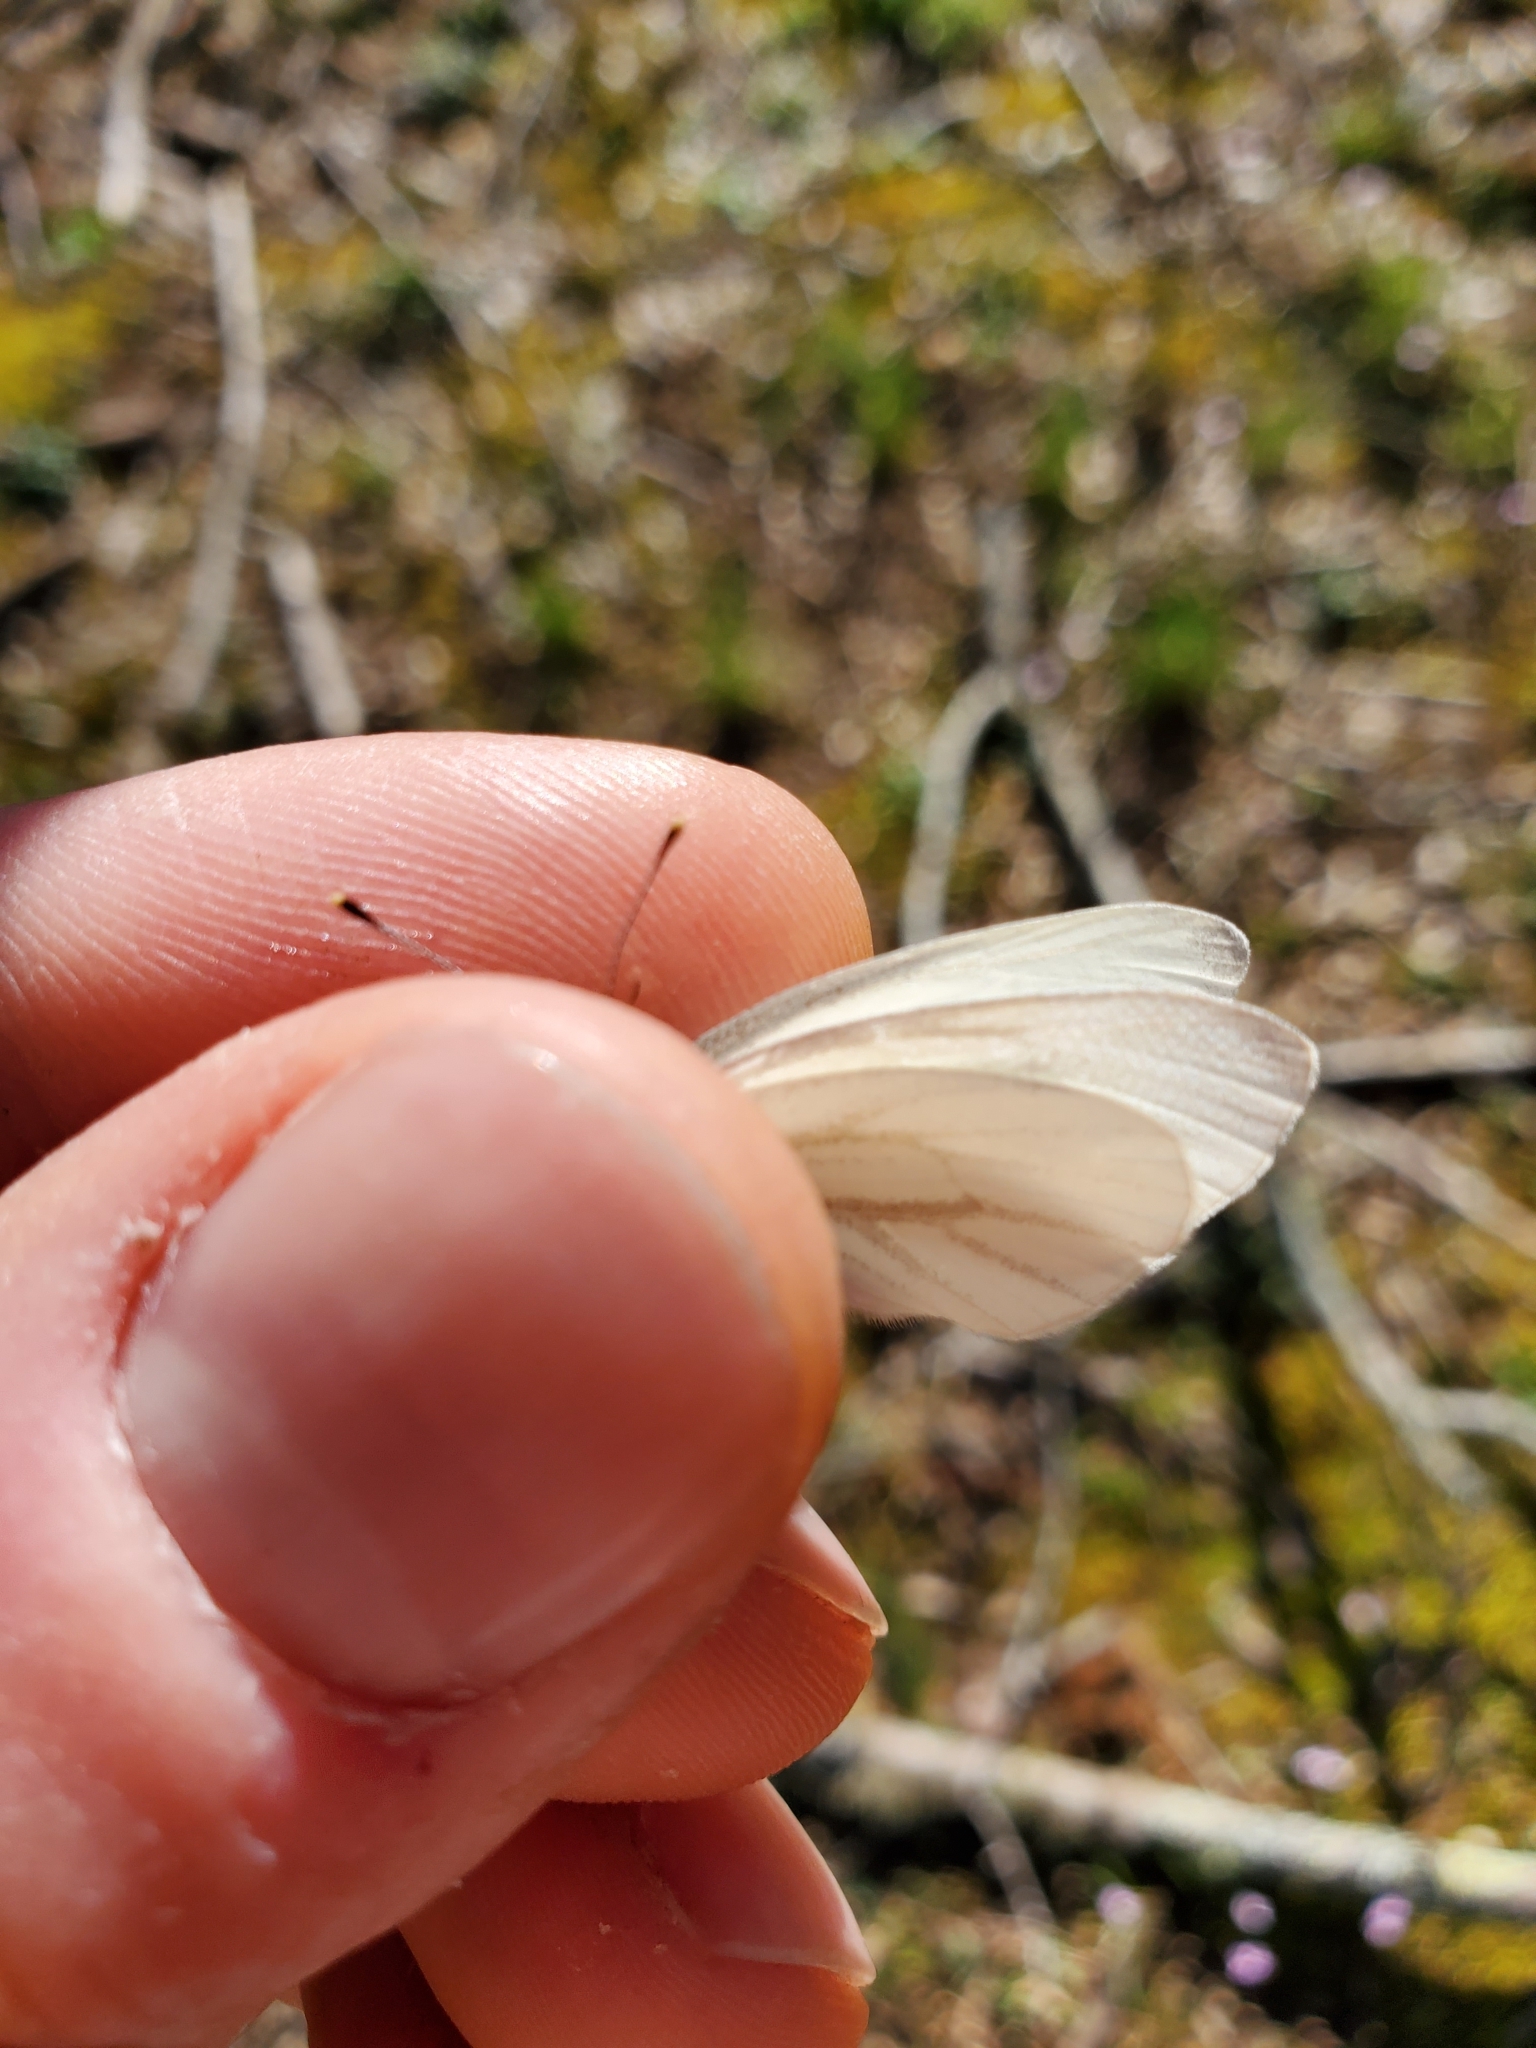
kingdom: Animalia
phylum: Arthropoda
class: Insecta
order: Lepidoptera
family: Pieridae
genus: Pieris
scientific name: Pieris virginiensis
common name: West virginia white
